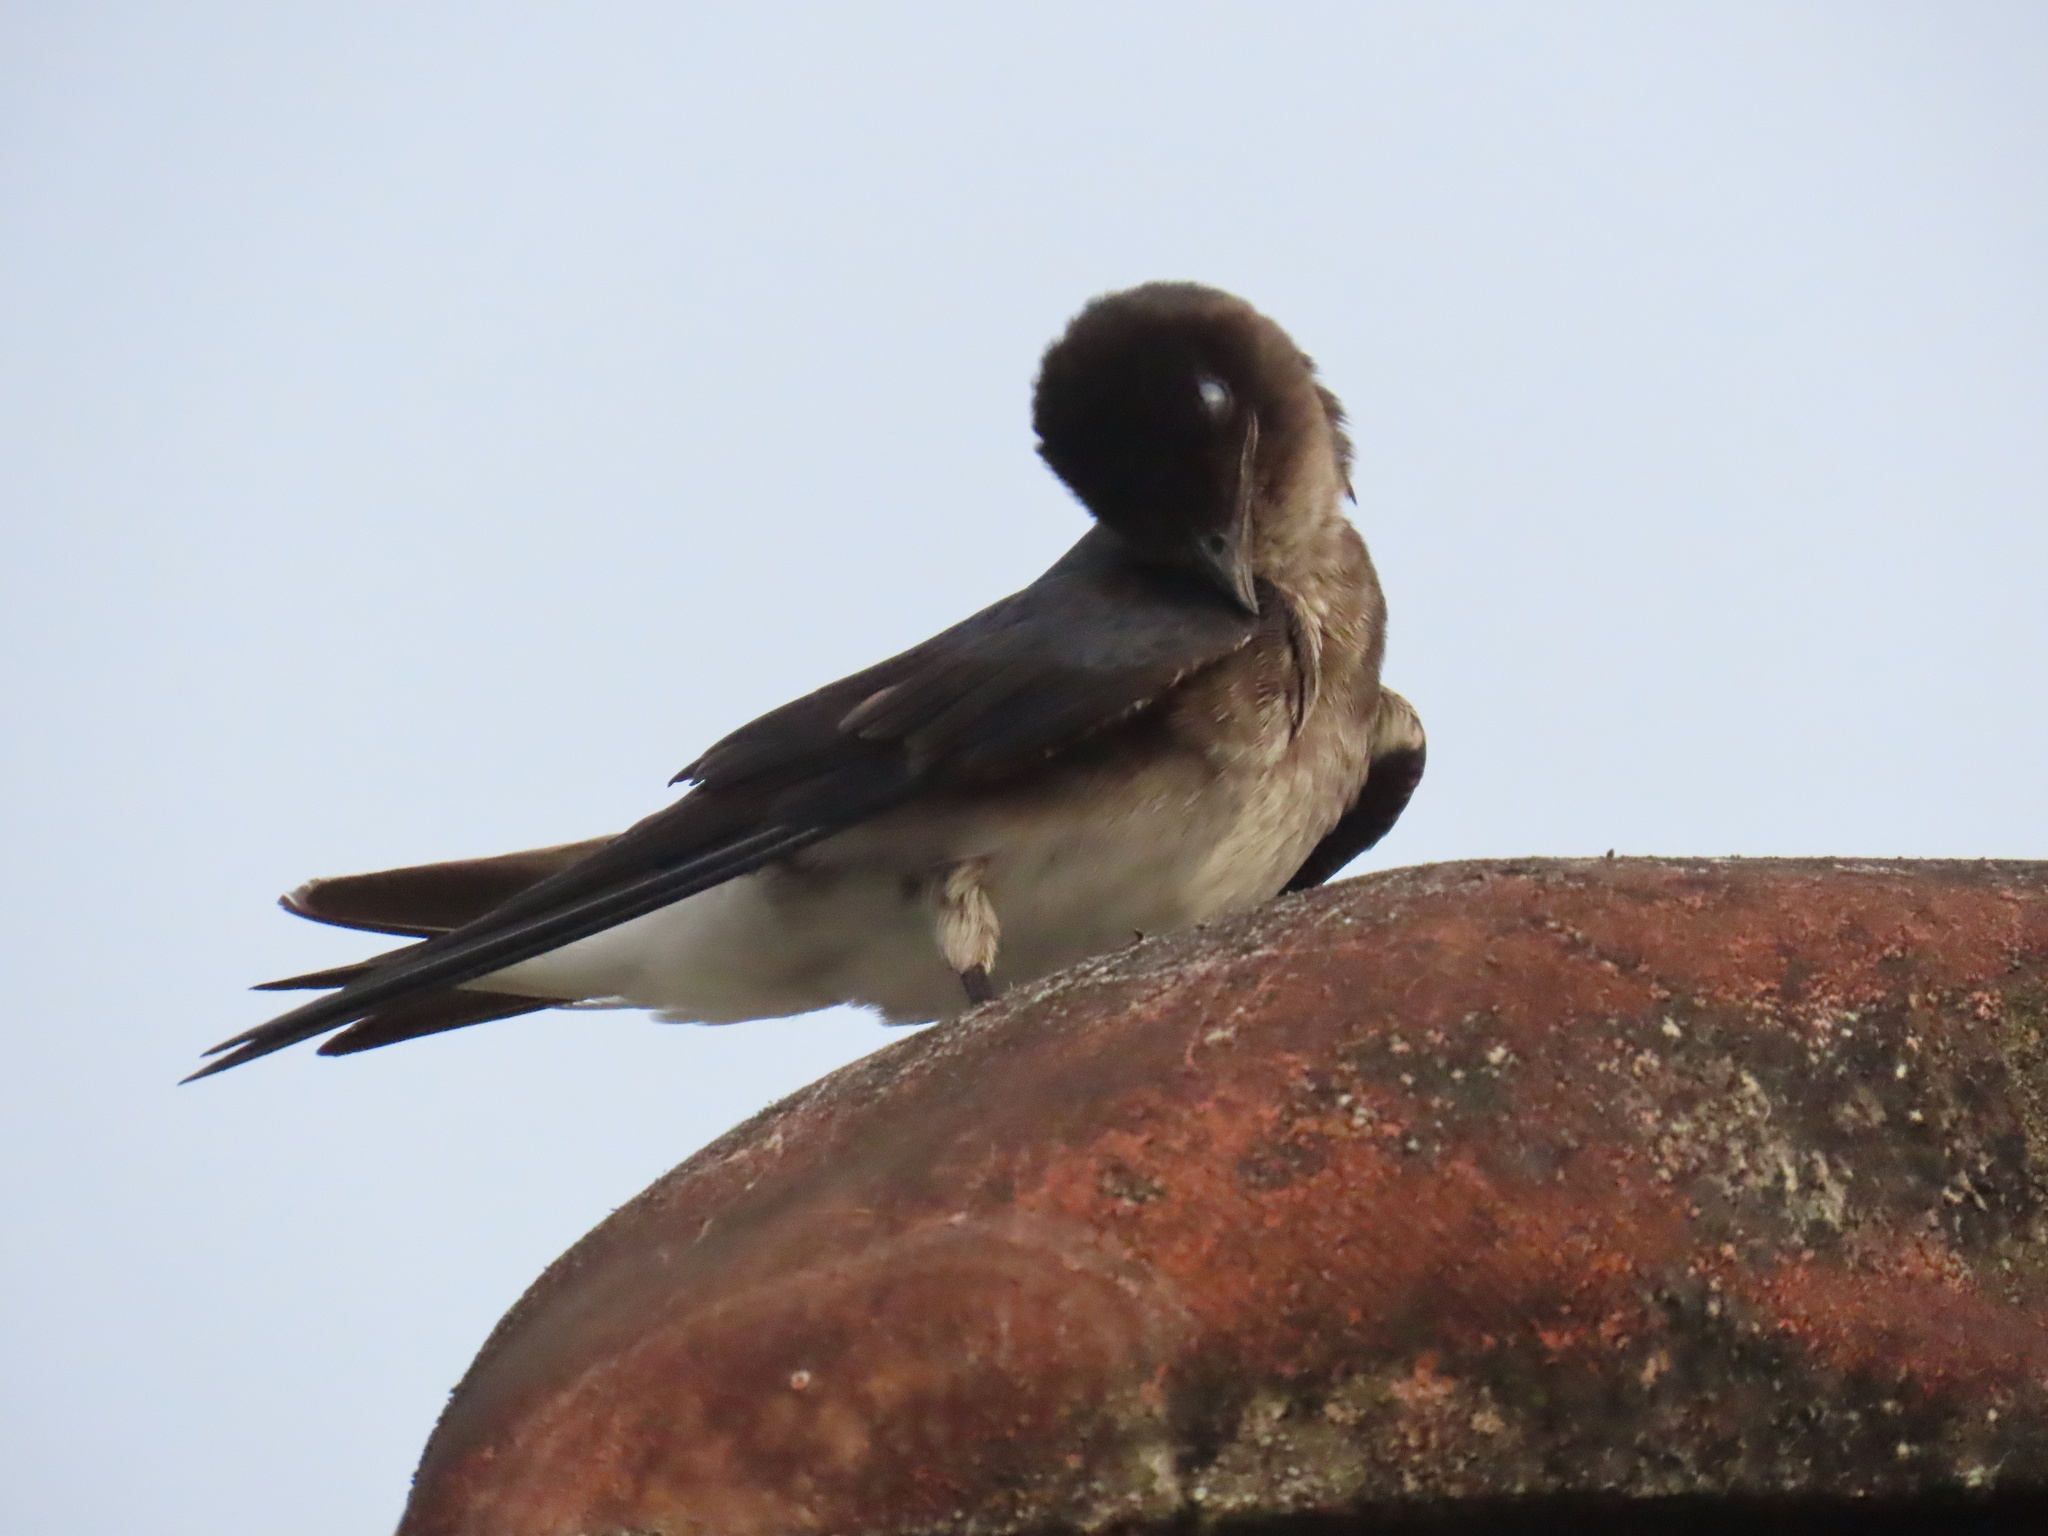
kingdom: Animalia
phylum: Chordata
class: Aves
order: Passeriformes
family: Hirundinidae
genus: Progne
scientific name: Progne chalybea
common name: Grey-breasted martin
